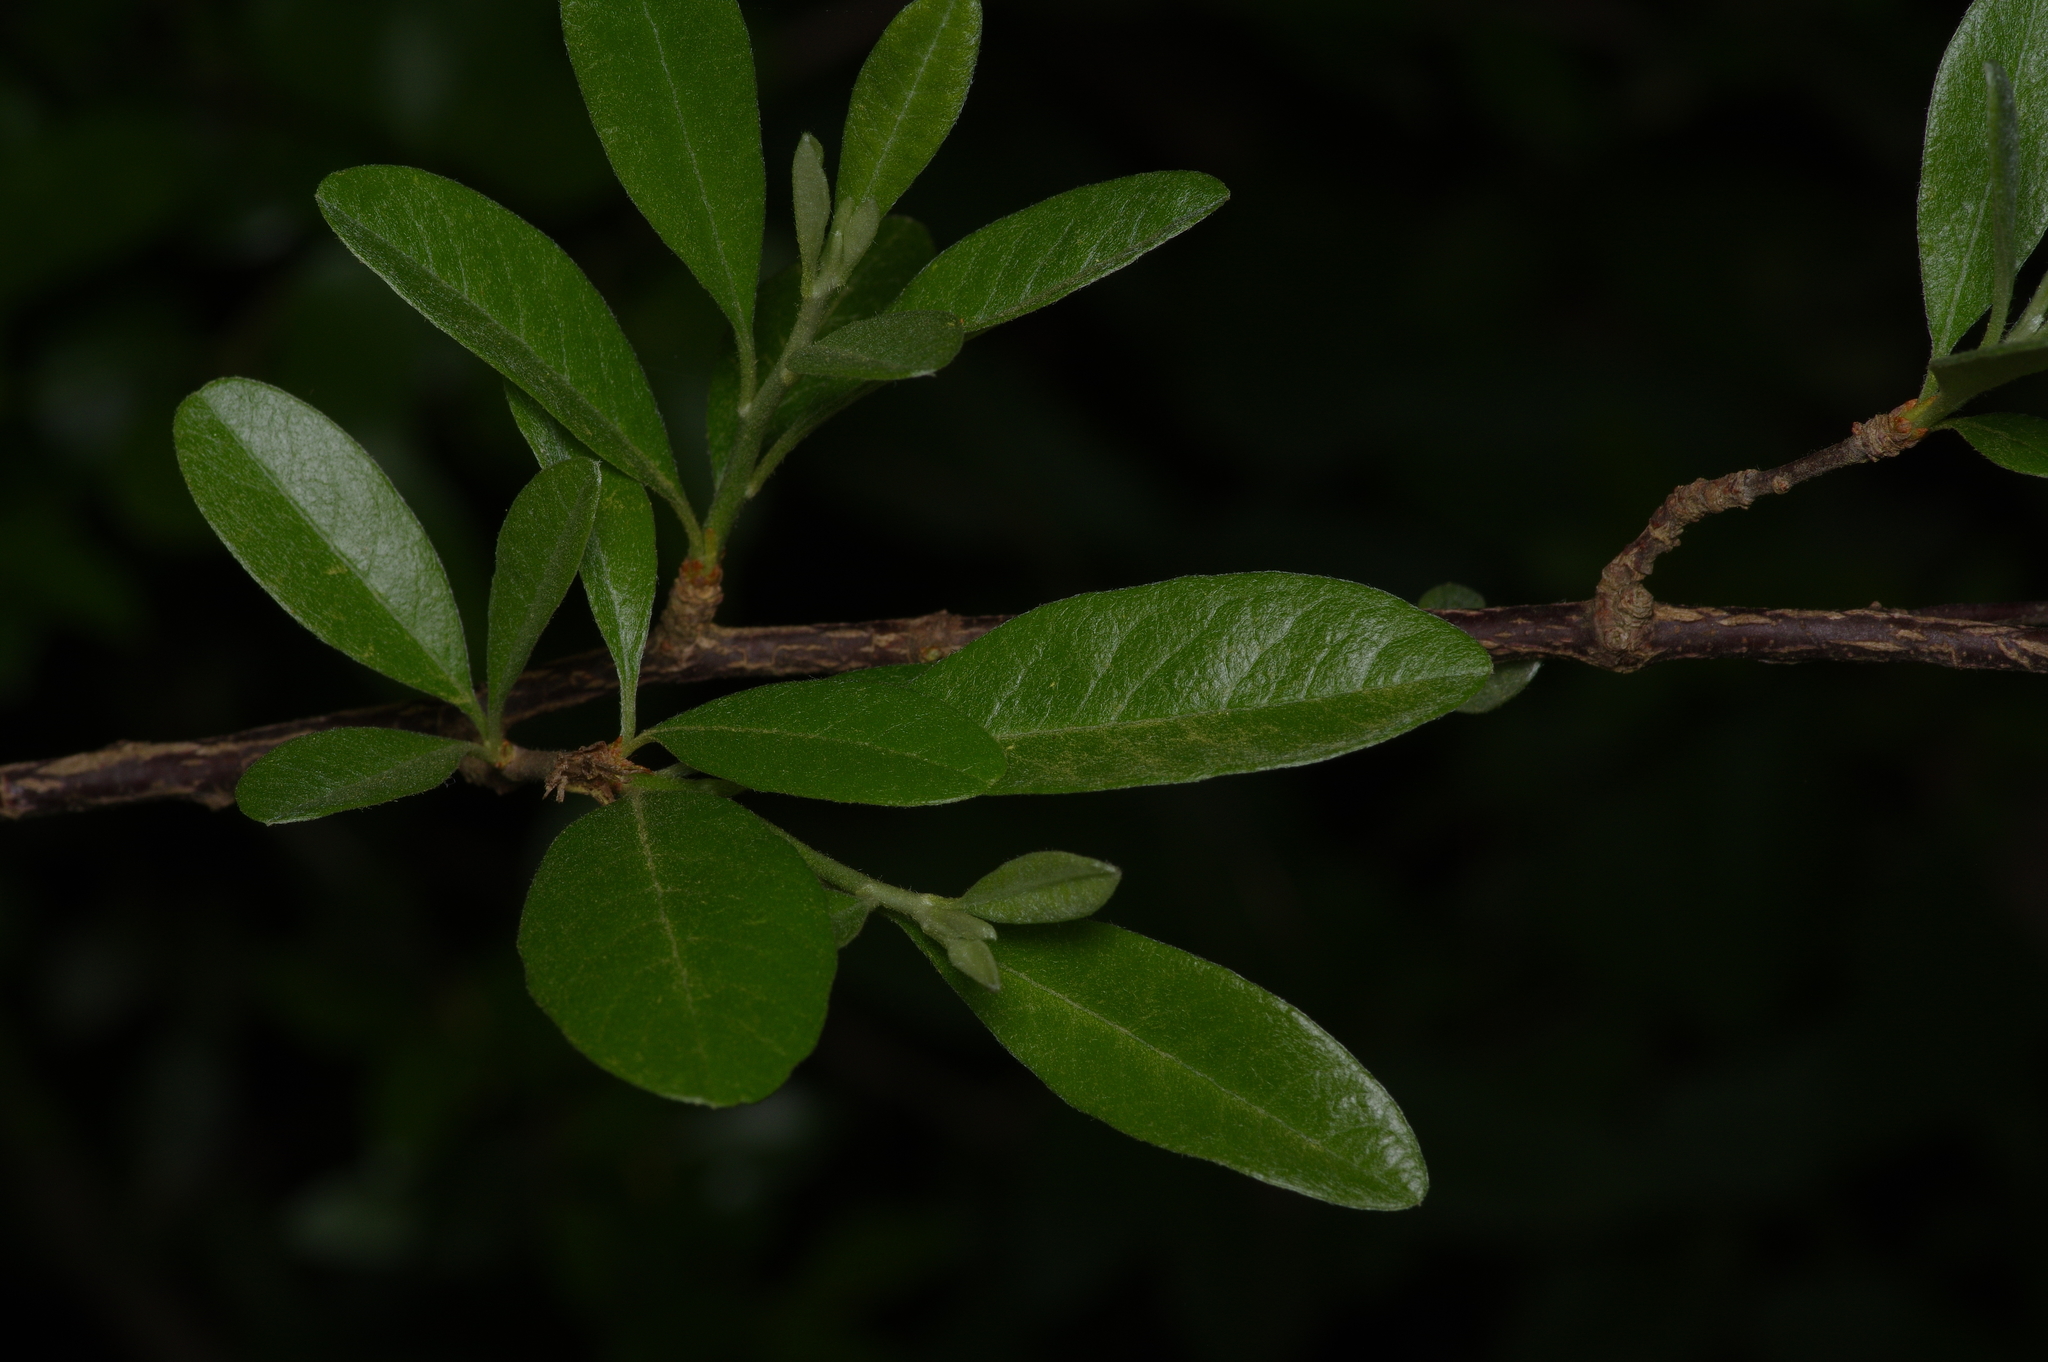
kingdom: Plantae
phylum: Tracheophyta
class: Magnoliopsida
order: Ericales
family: Sapotaceae
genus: Sideroxylon
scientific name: Sideroxylon lanuginosum
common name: Chittamwood
